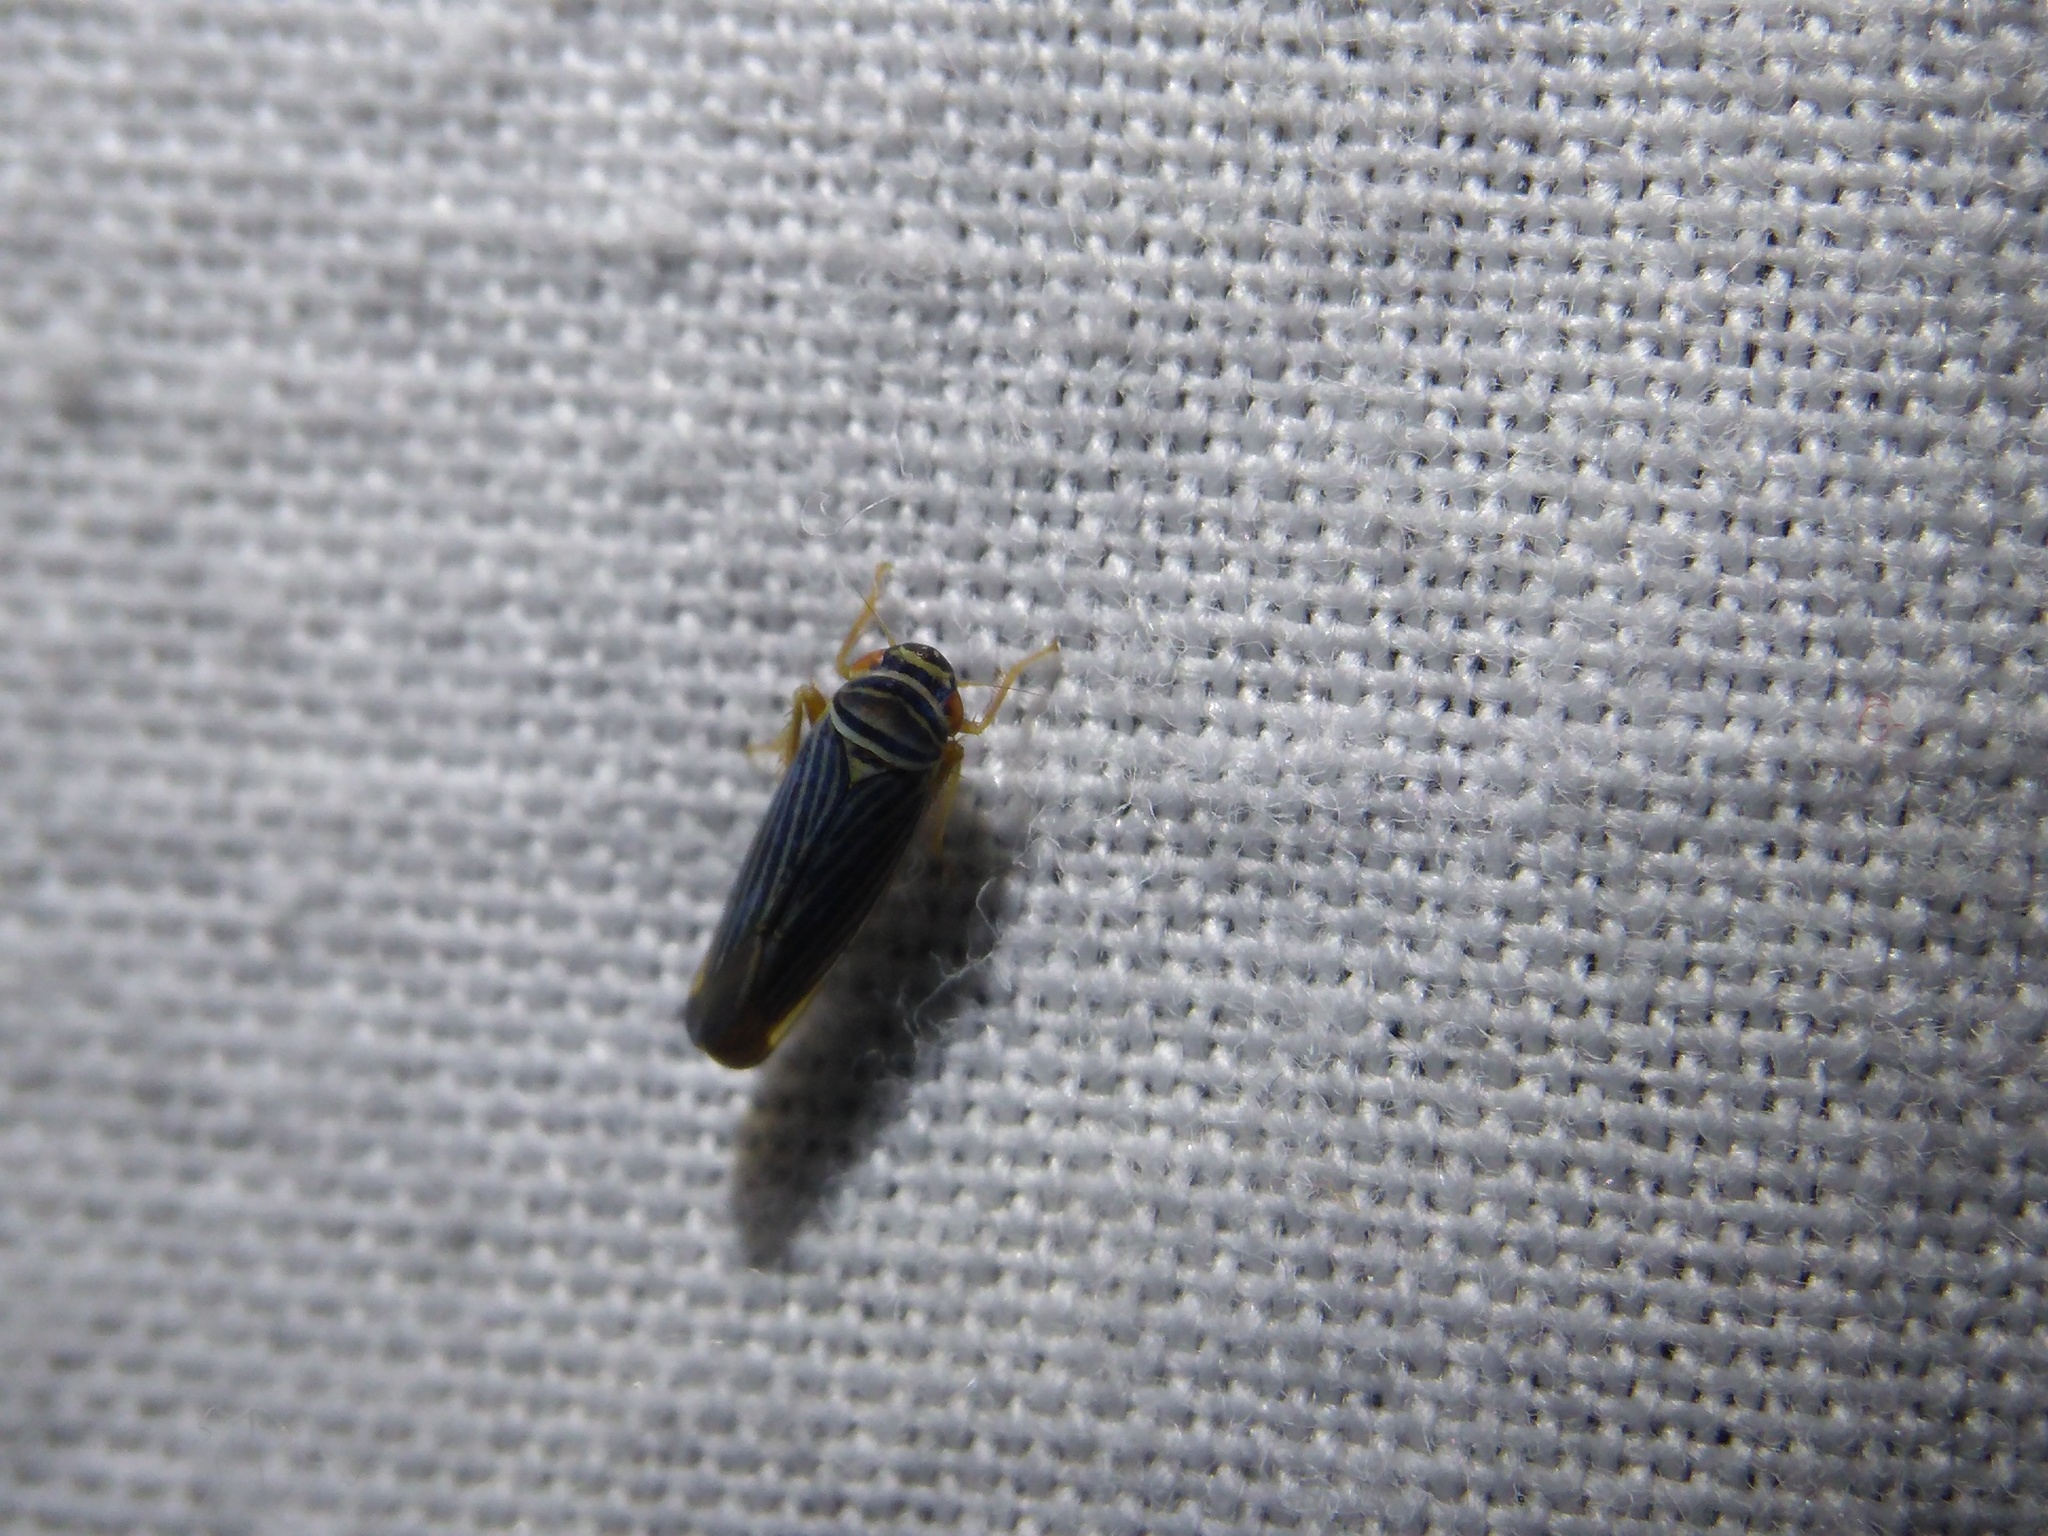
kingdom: Animalia
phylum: Arthropoda
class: Insecta
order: Hemiptera
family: Cicadellidae
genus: Tylozygus
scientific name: Tylozygus bifidus
